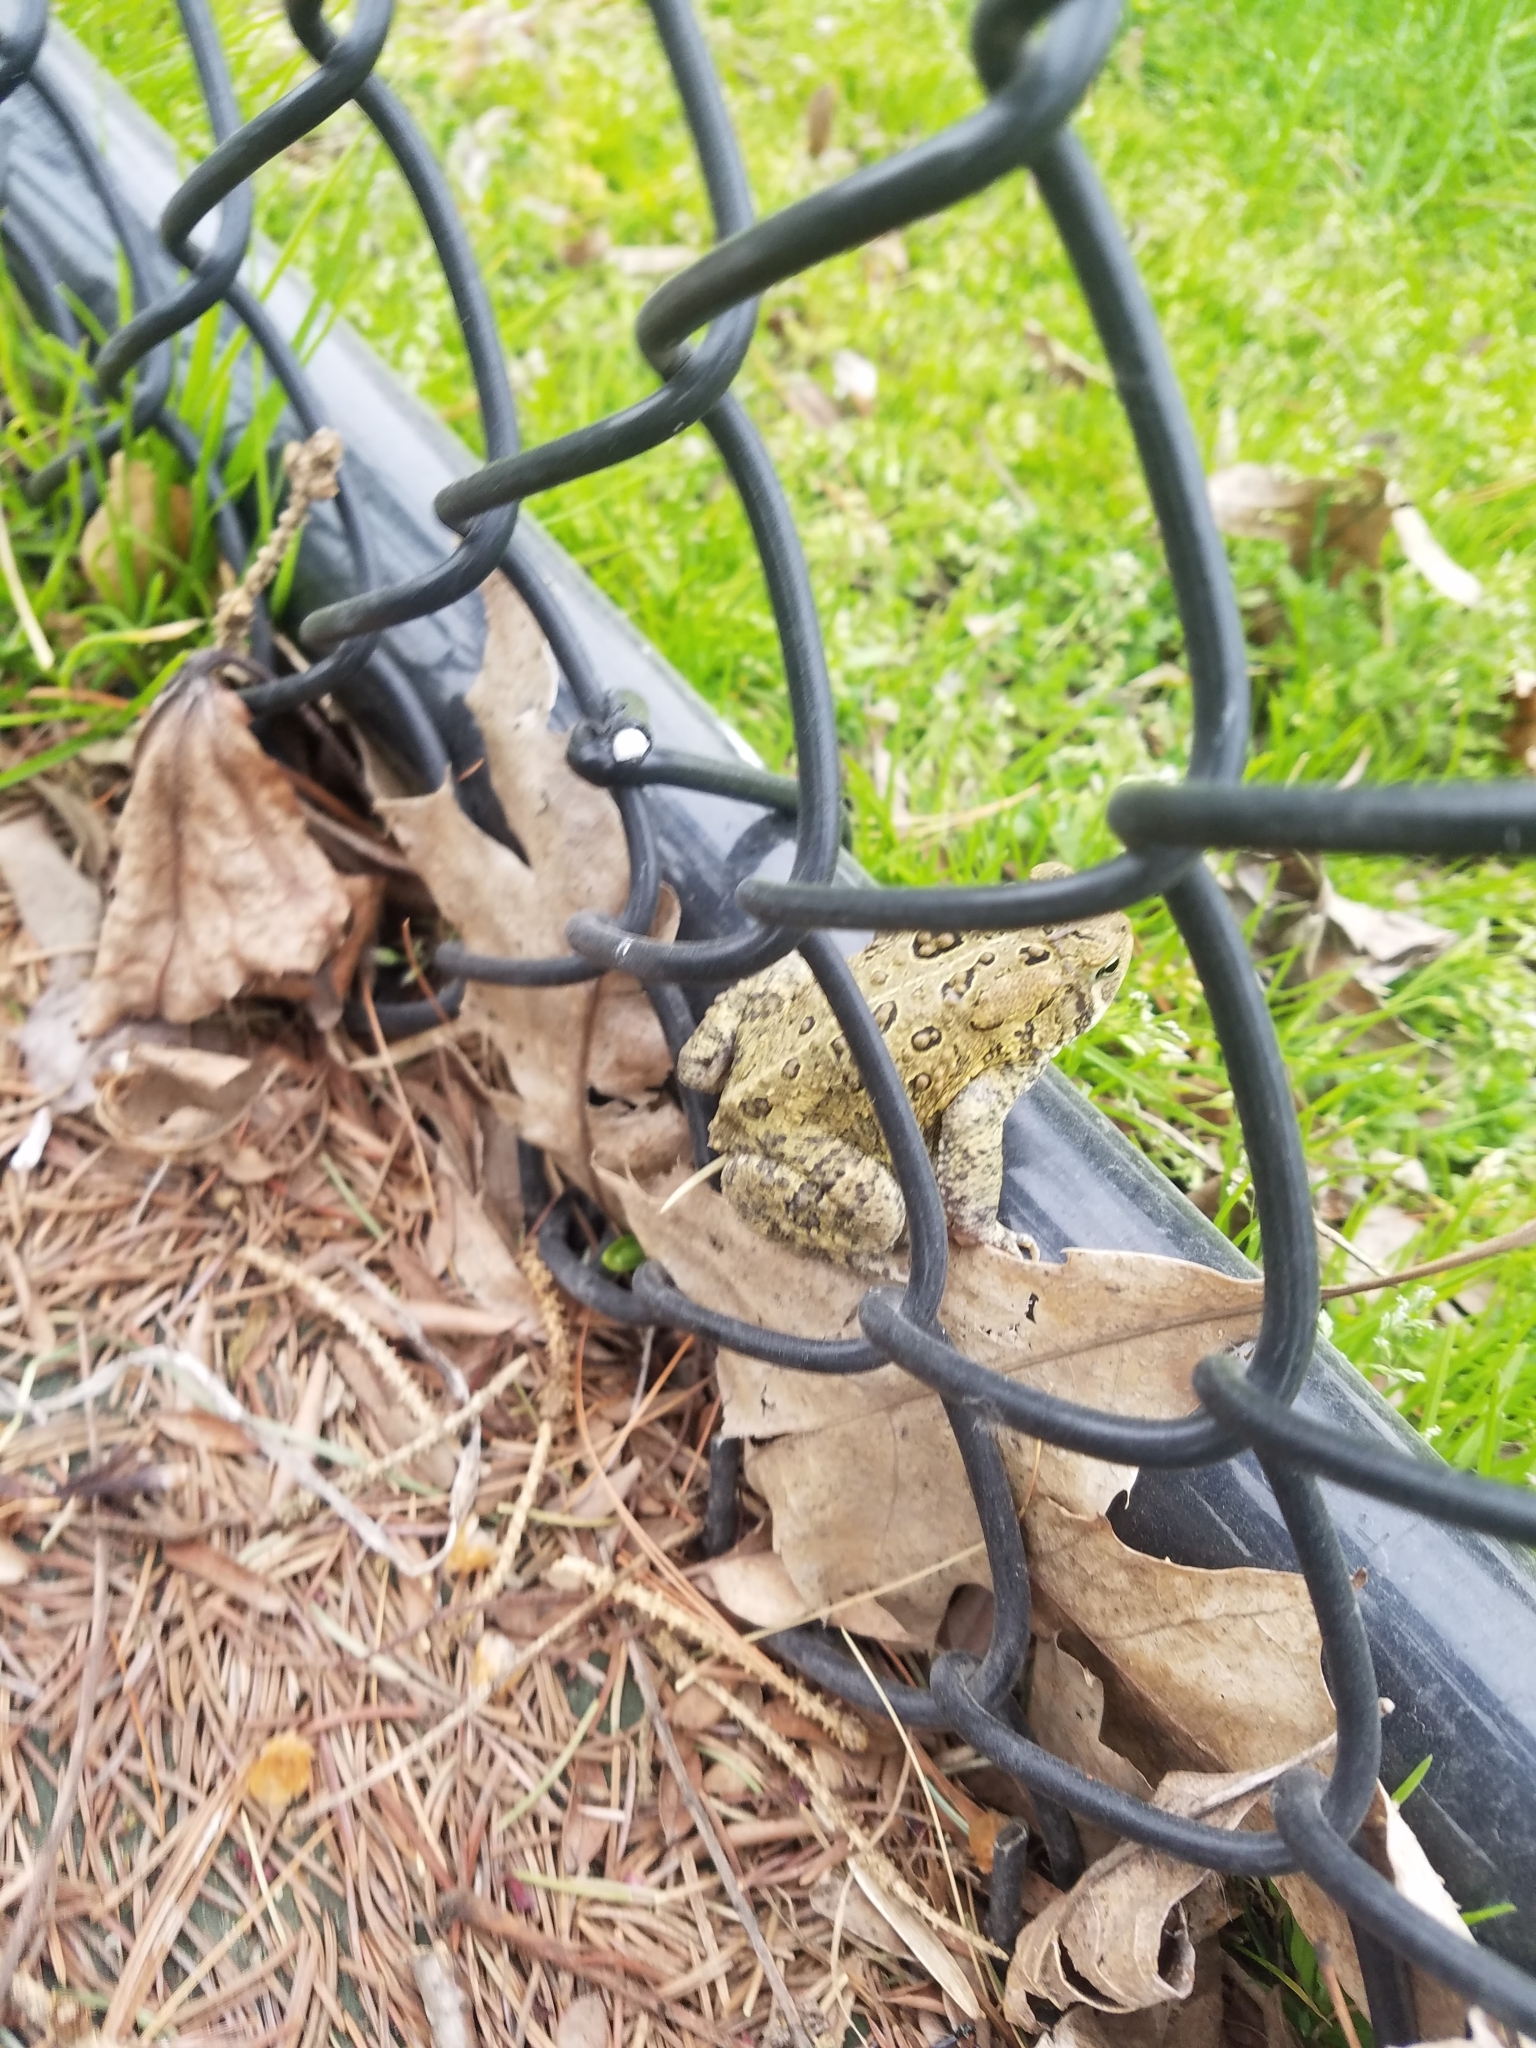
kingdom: Animalia
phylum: Chordata
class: Amphibia
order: Anura
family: Bufonidae
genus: Anaxyrus
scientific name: Anaxyrus americanus
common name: American toad
